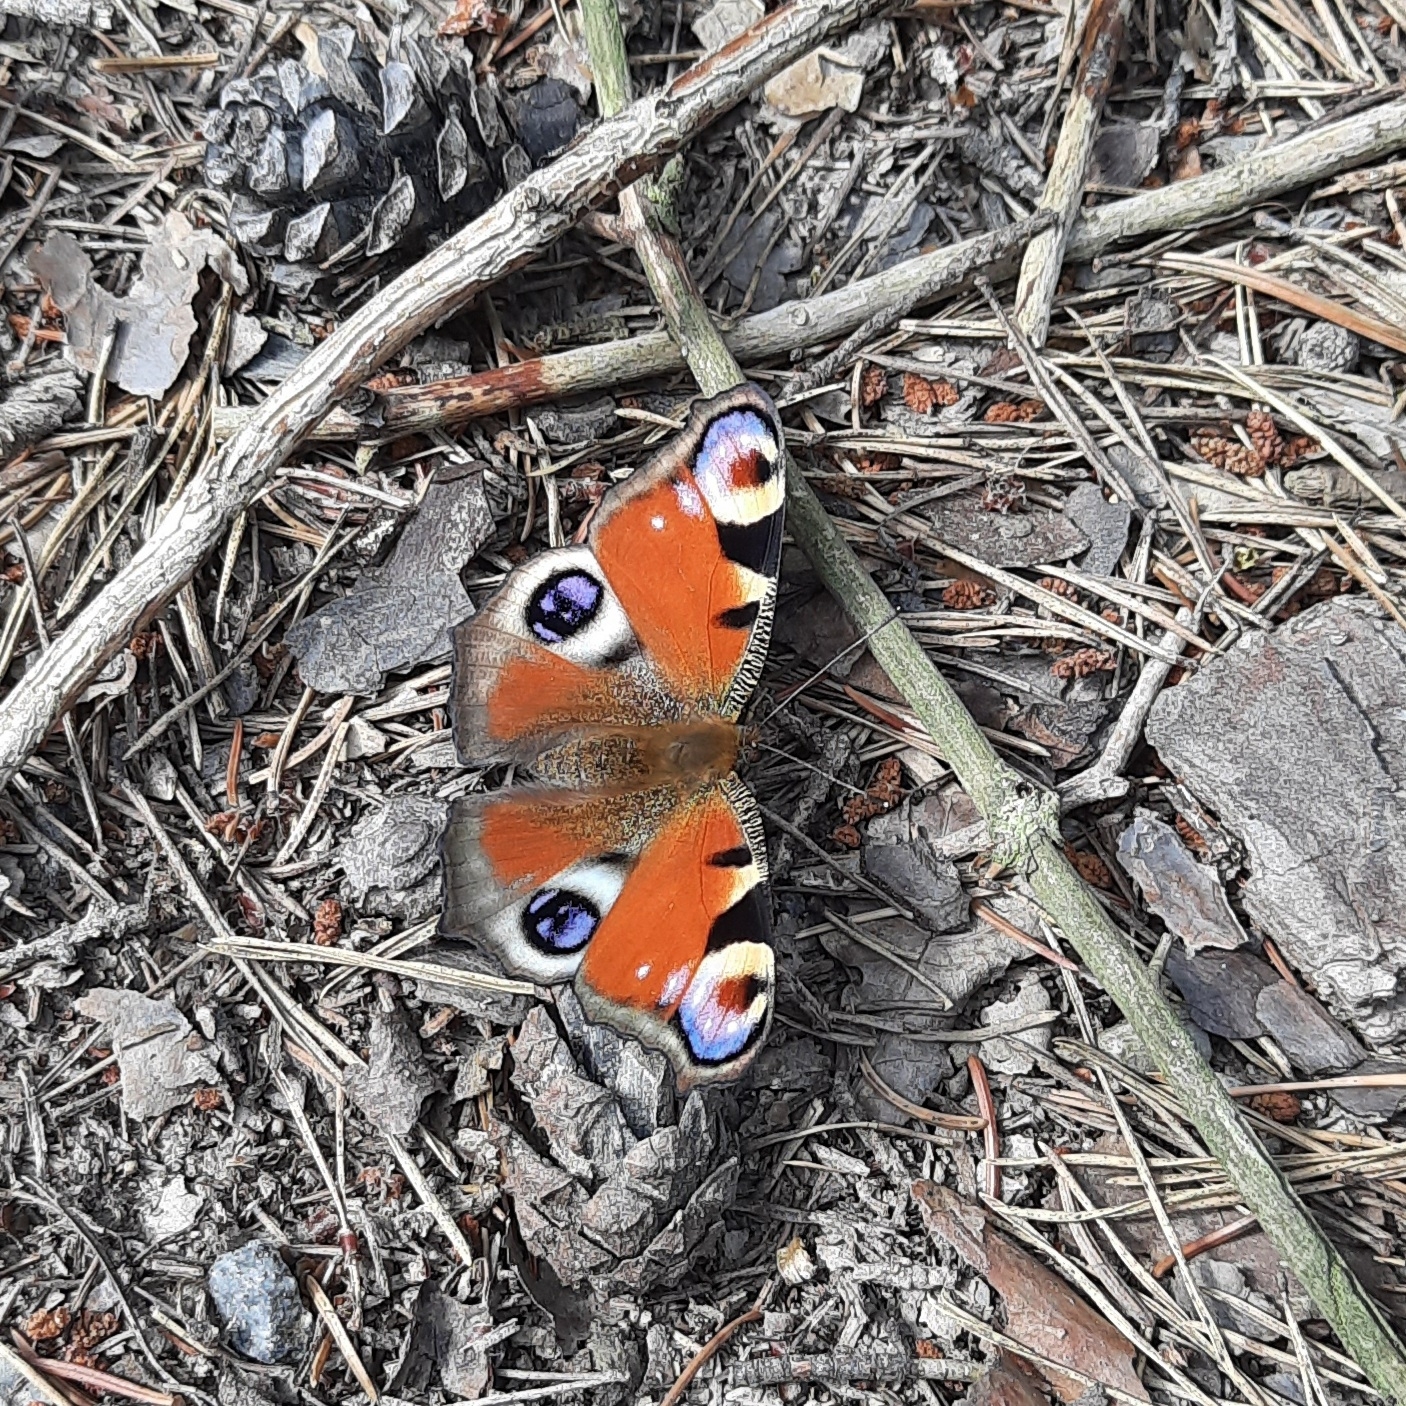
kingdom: Animalia
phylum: Arthropoda
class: Insecta
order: Lepidoptera
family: Nymphalidae
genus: Aglais
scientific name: Aglais io
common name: Peacock
